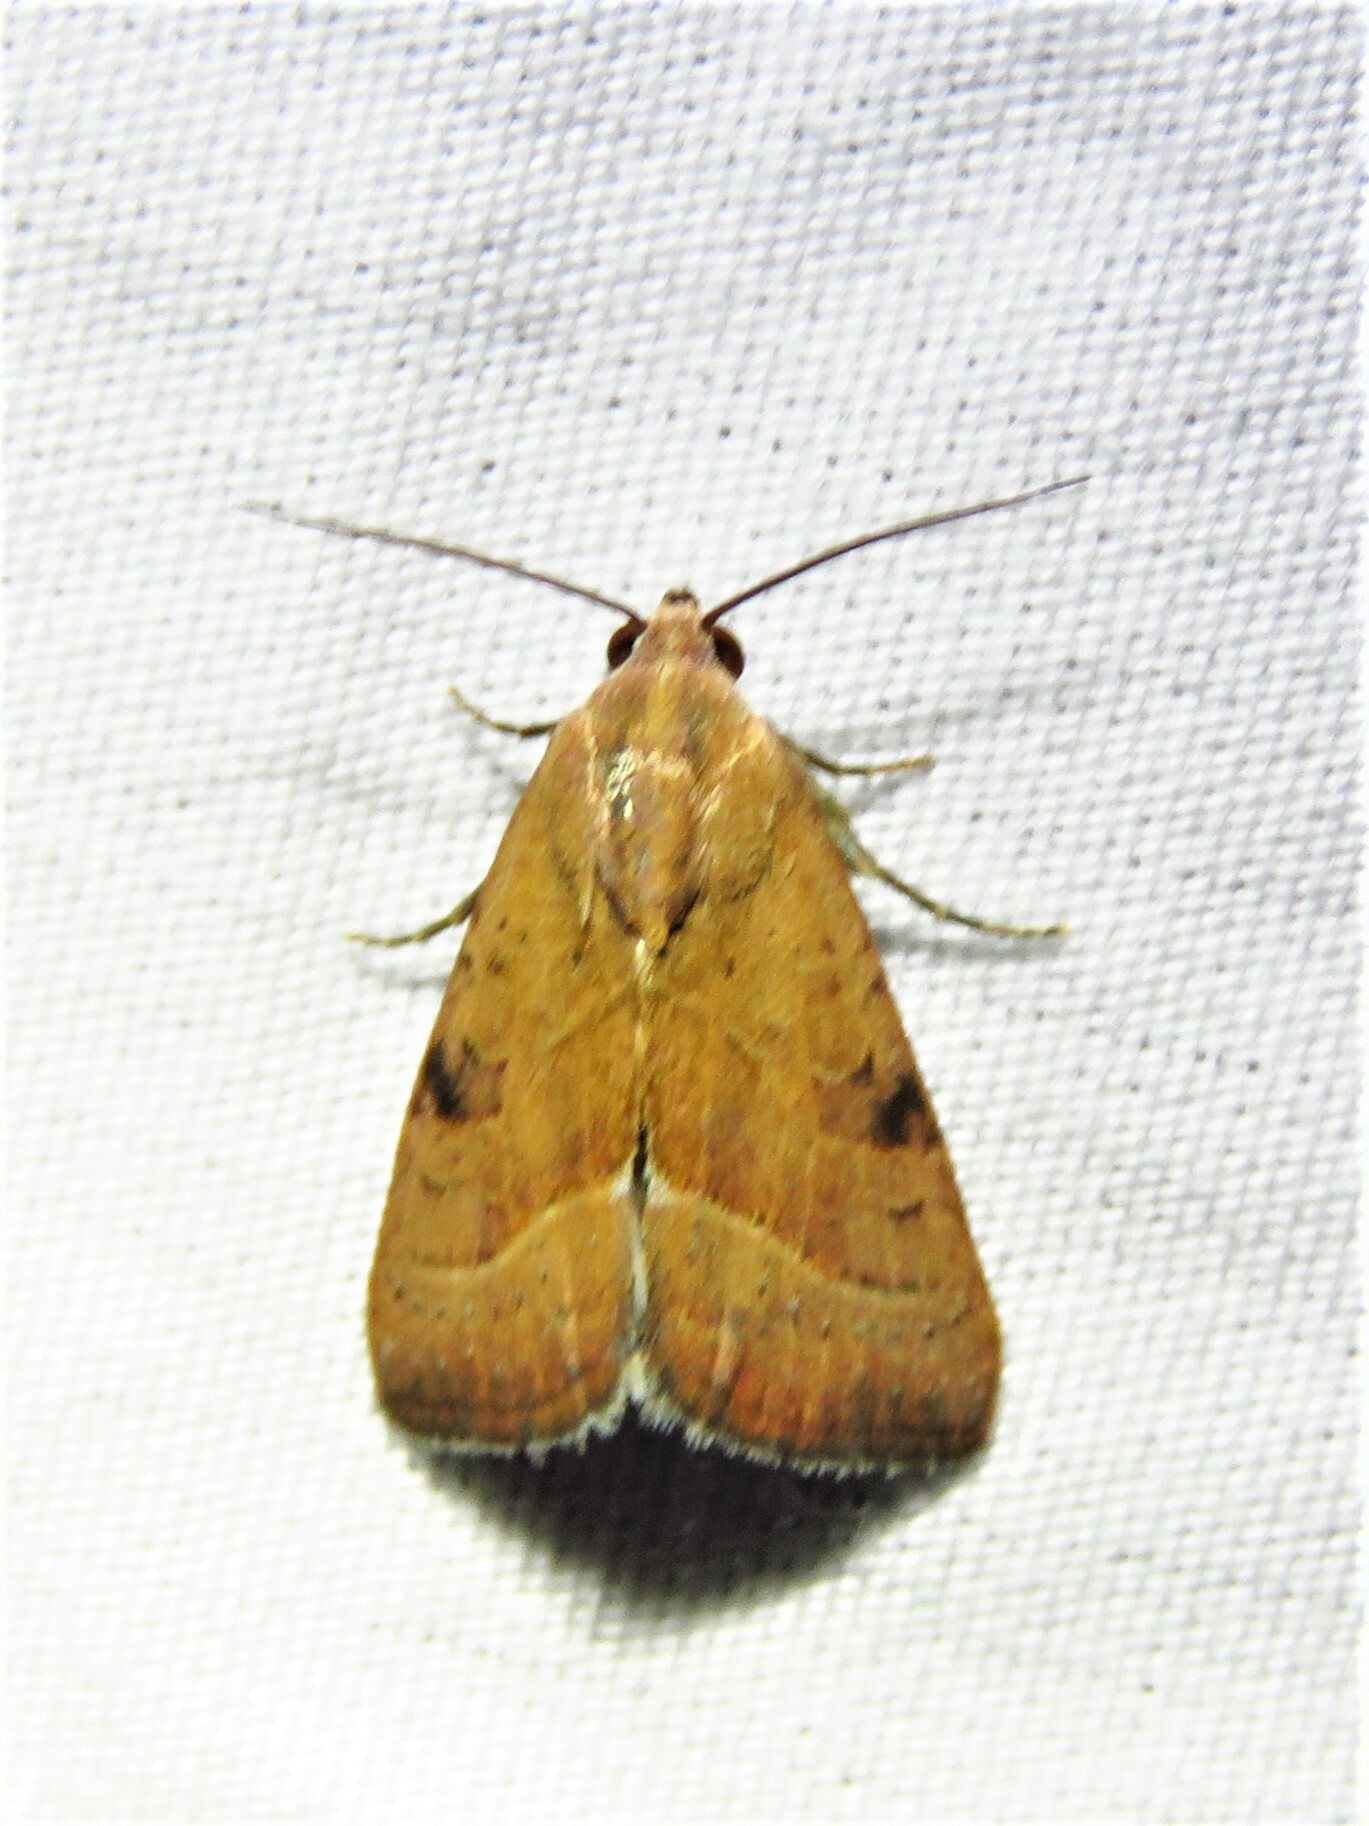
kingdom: Animalia
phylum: Arthropoda
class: Insecta
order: Lepidoptera
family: Noctuidae
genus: Galgula
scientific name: Galgula partita
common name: Wedgeling
